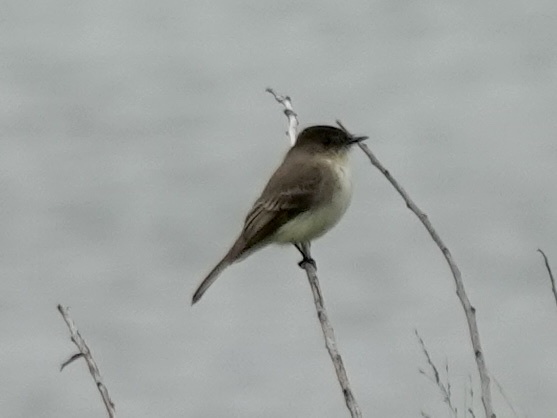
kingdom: Animalia
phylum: Chordata
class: Aves
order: Passeriformes
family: Tyrannidae
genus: Sayornis
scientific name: Sayornis phoebe
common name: Eastern phoebe
